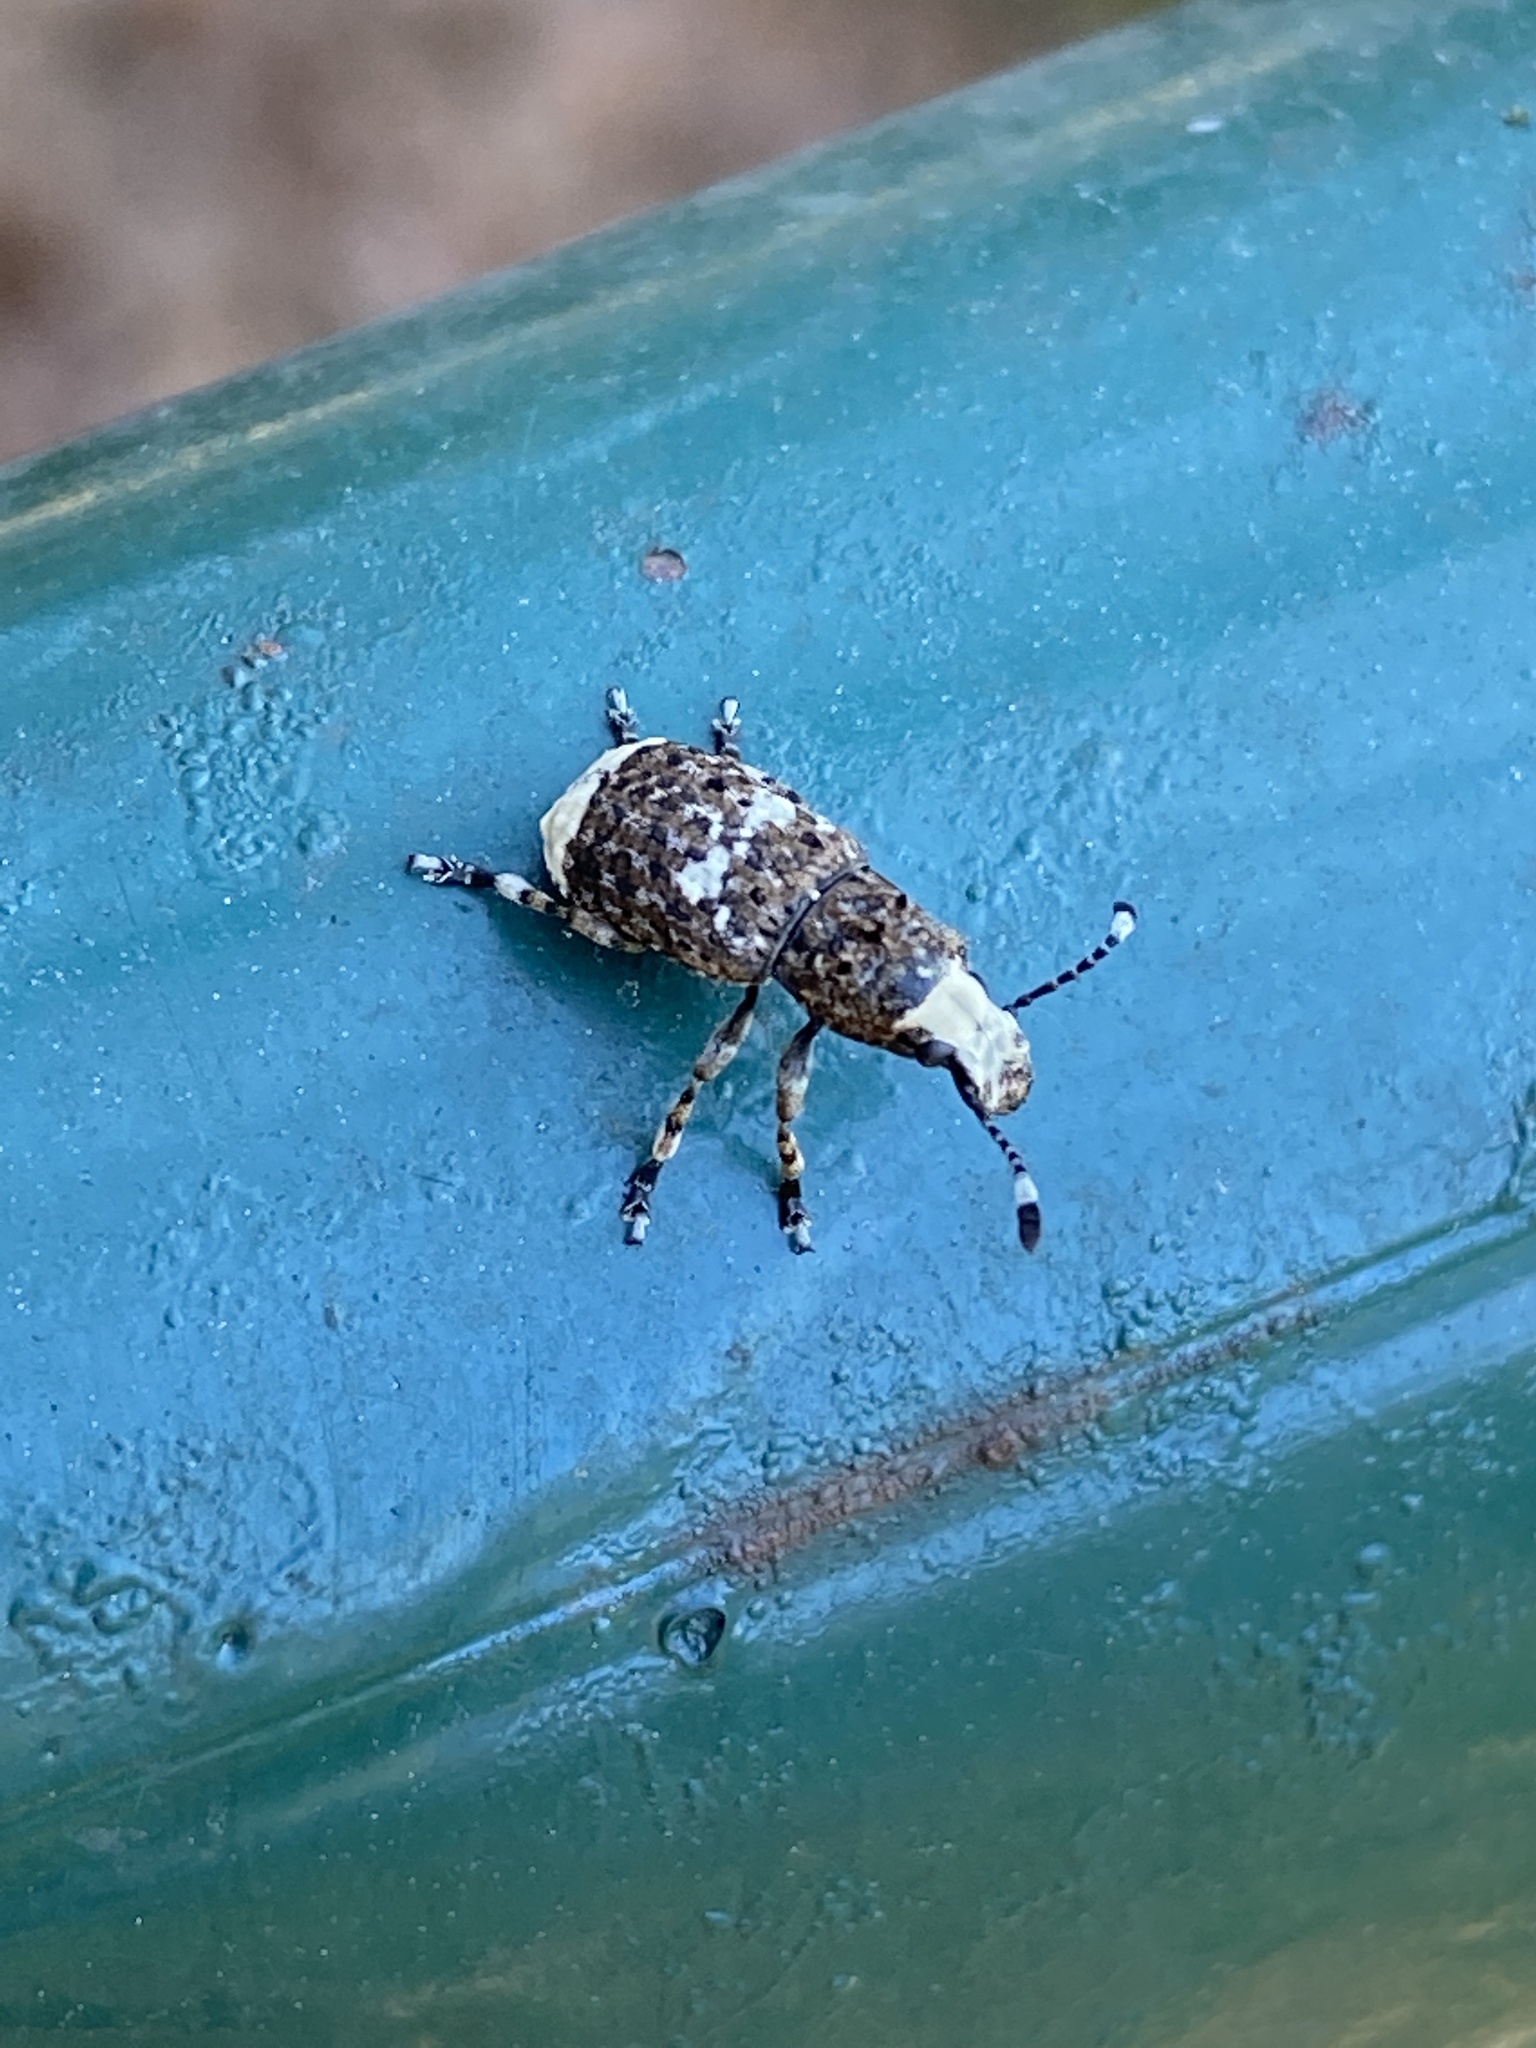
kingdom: Animalia
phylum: Arthropoda
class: Insecta
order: Coleoptera
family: Anthribidae
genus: Platystomos
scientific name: Platystomos albinus
